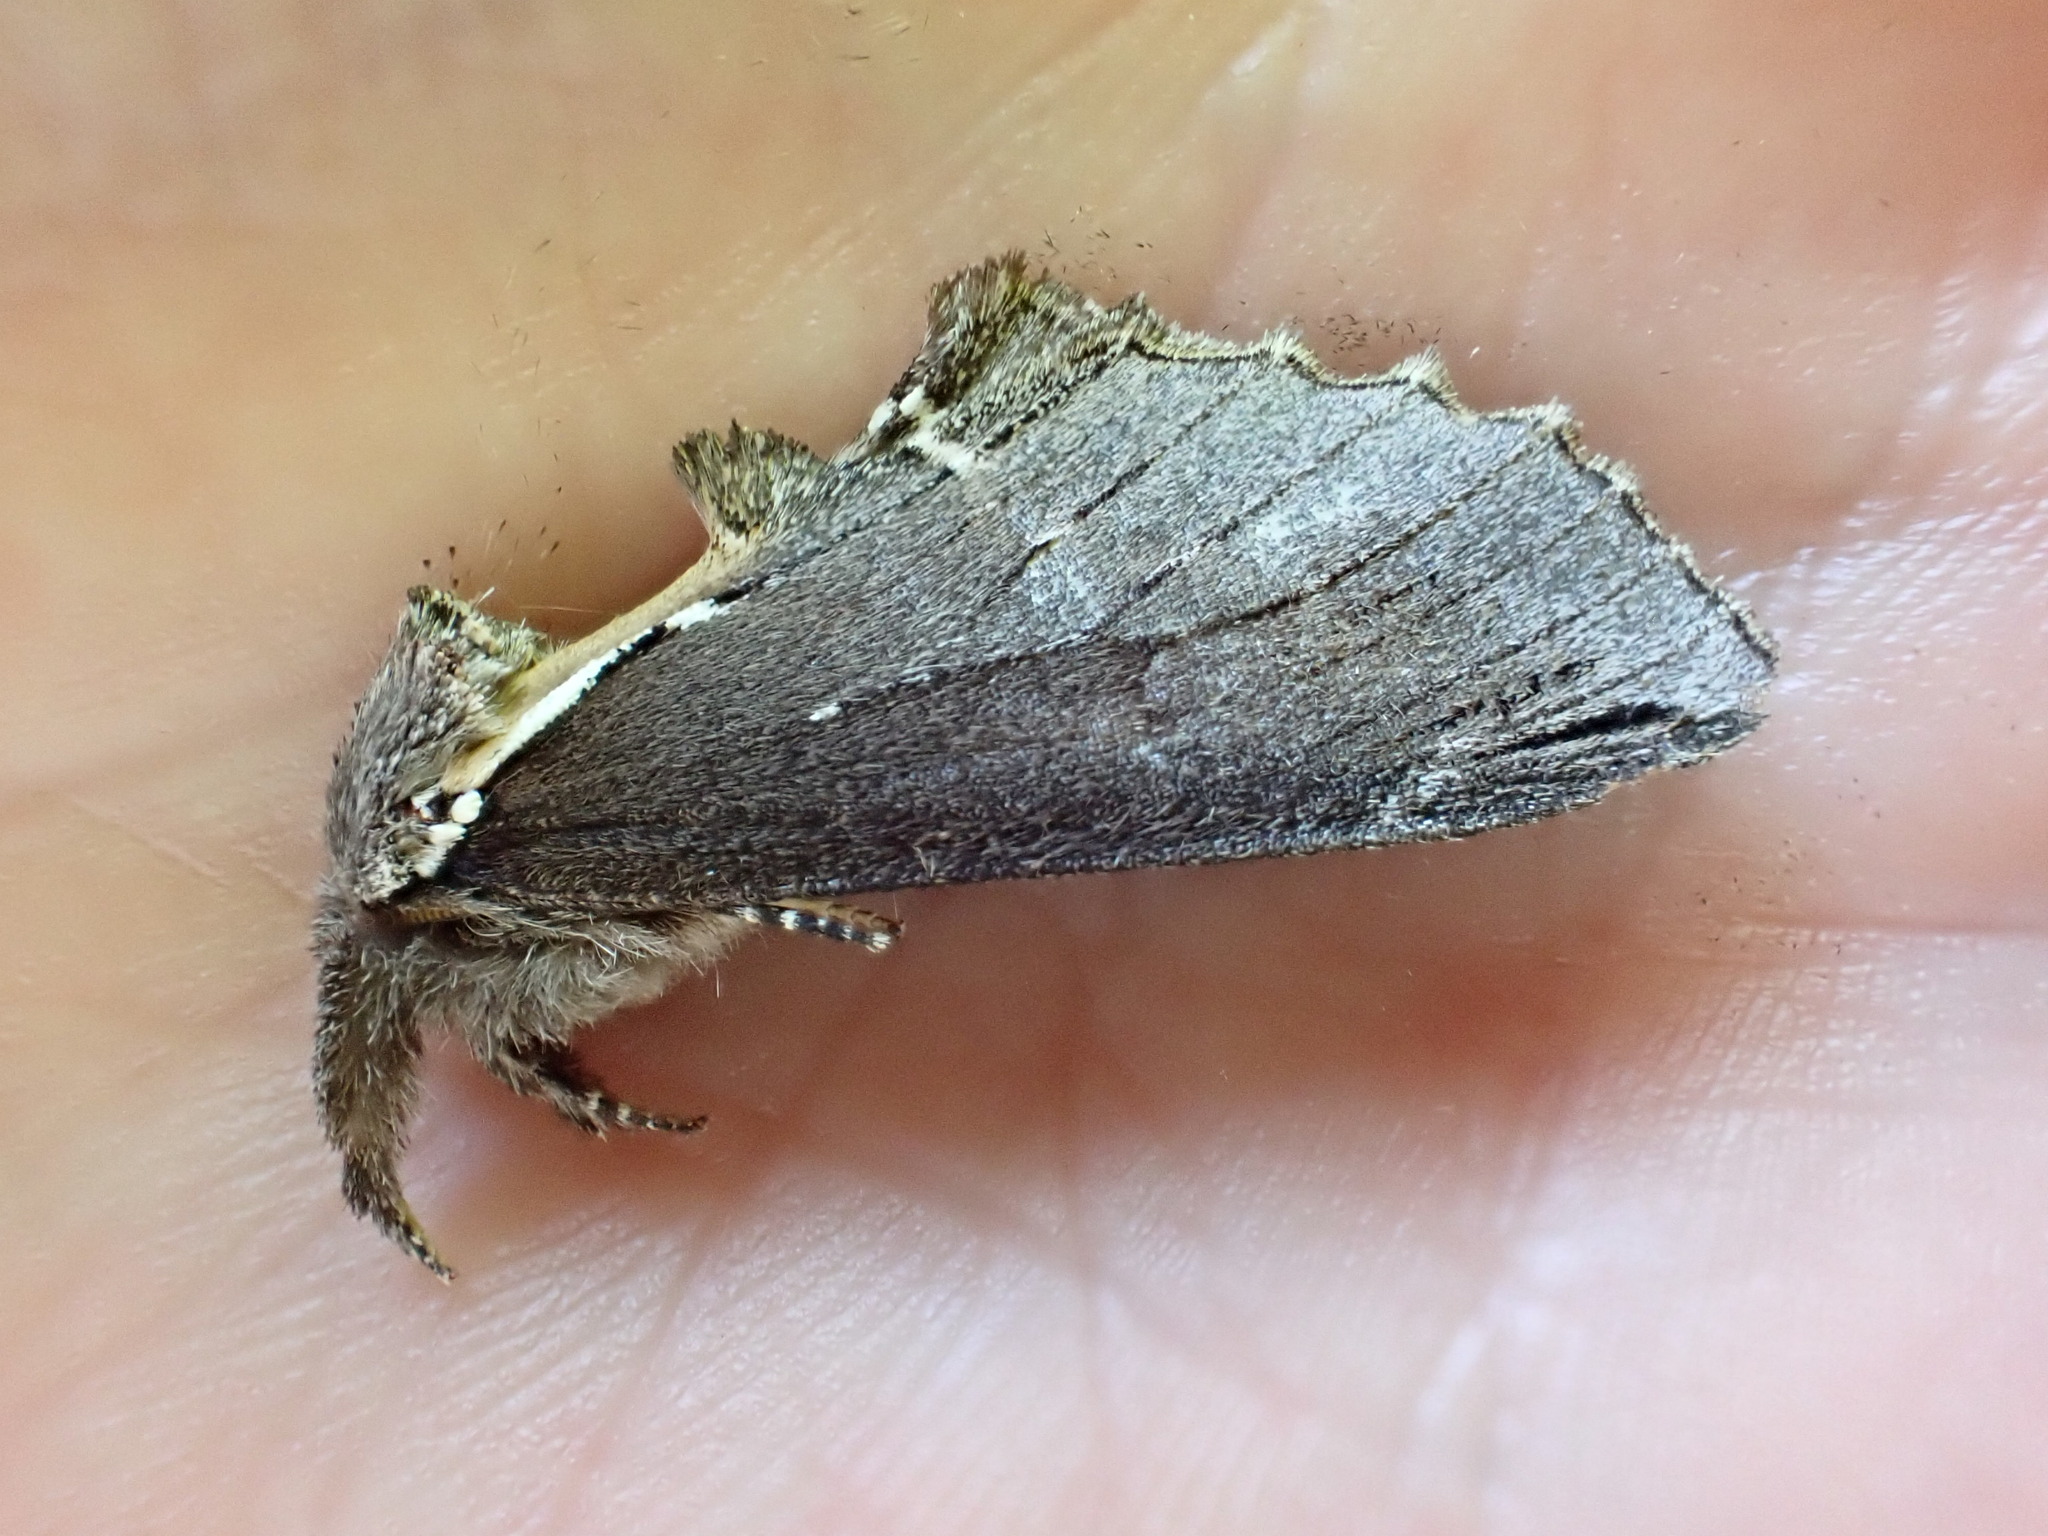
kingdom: Animalia
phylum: Arthropoda
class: Insecta
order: Lepidoptera
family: Notodontidae
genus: Pheosidea
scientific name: Pheosidea elegans
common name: Elegant prominent
